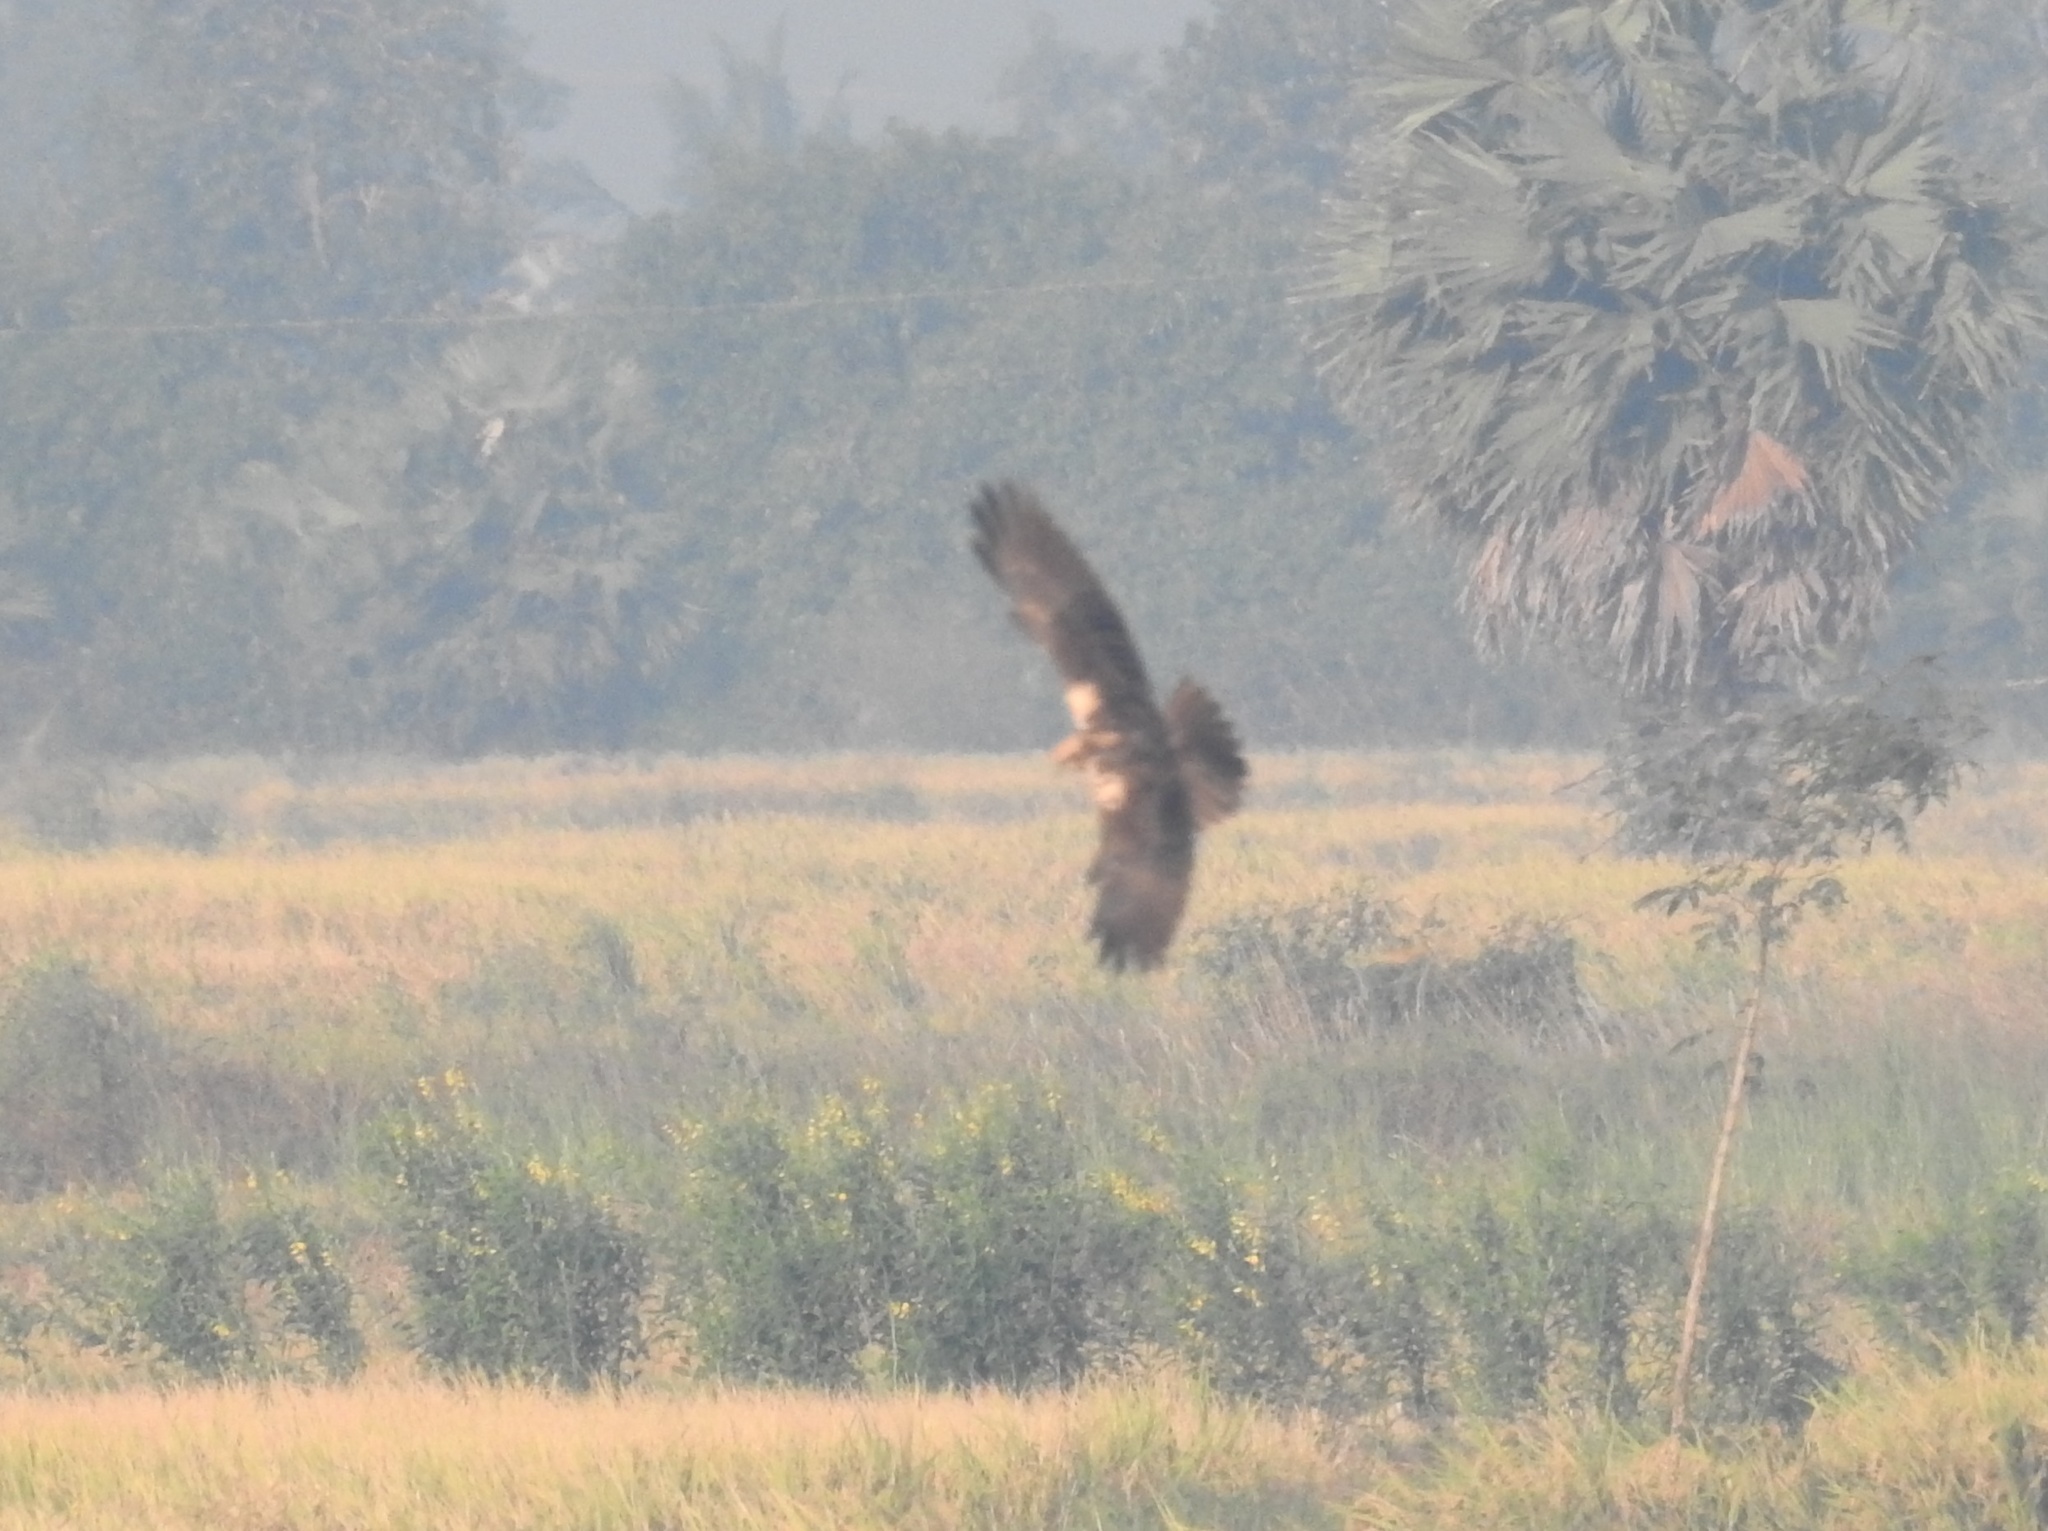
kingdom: Animalia
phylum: Chordata
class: Aves
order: Accipitriformes
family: Accipitridae
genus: Circus
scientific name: Circus aeruginosus
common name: Western marsh harrier
